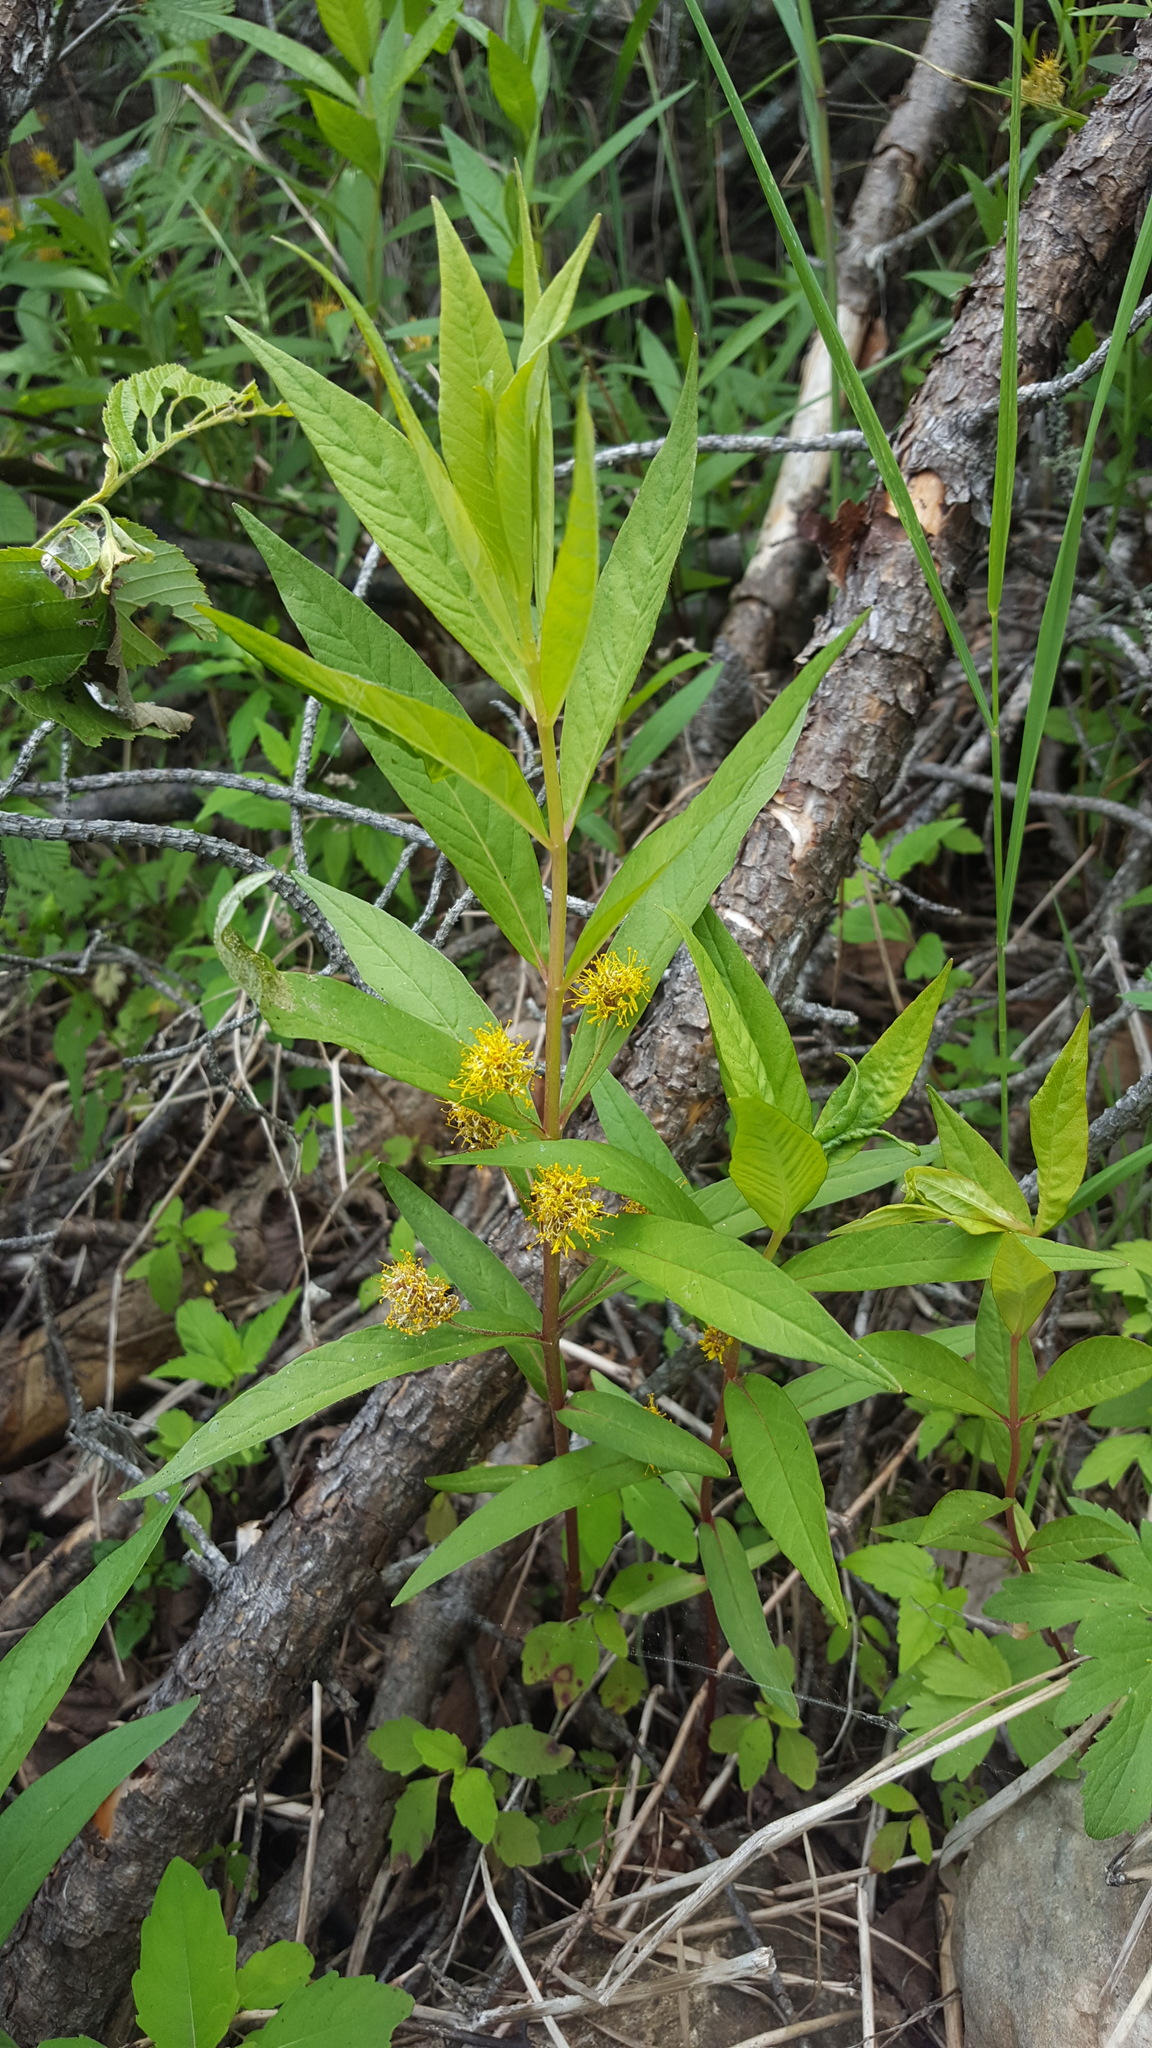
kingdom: Plantae
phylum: Tracheophyta
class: Magnoliopsida
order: Ericales
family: Primulaceae
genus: Lysimachia
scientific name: Lysimachia thyrsiflora
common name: Tufted loosestrife
